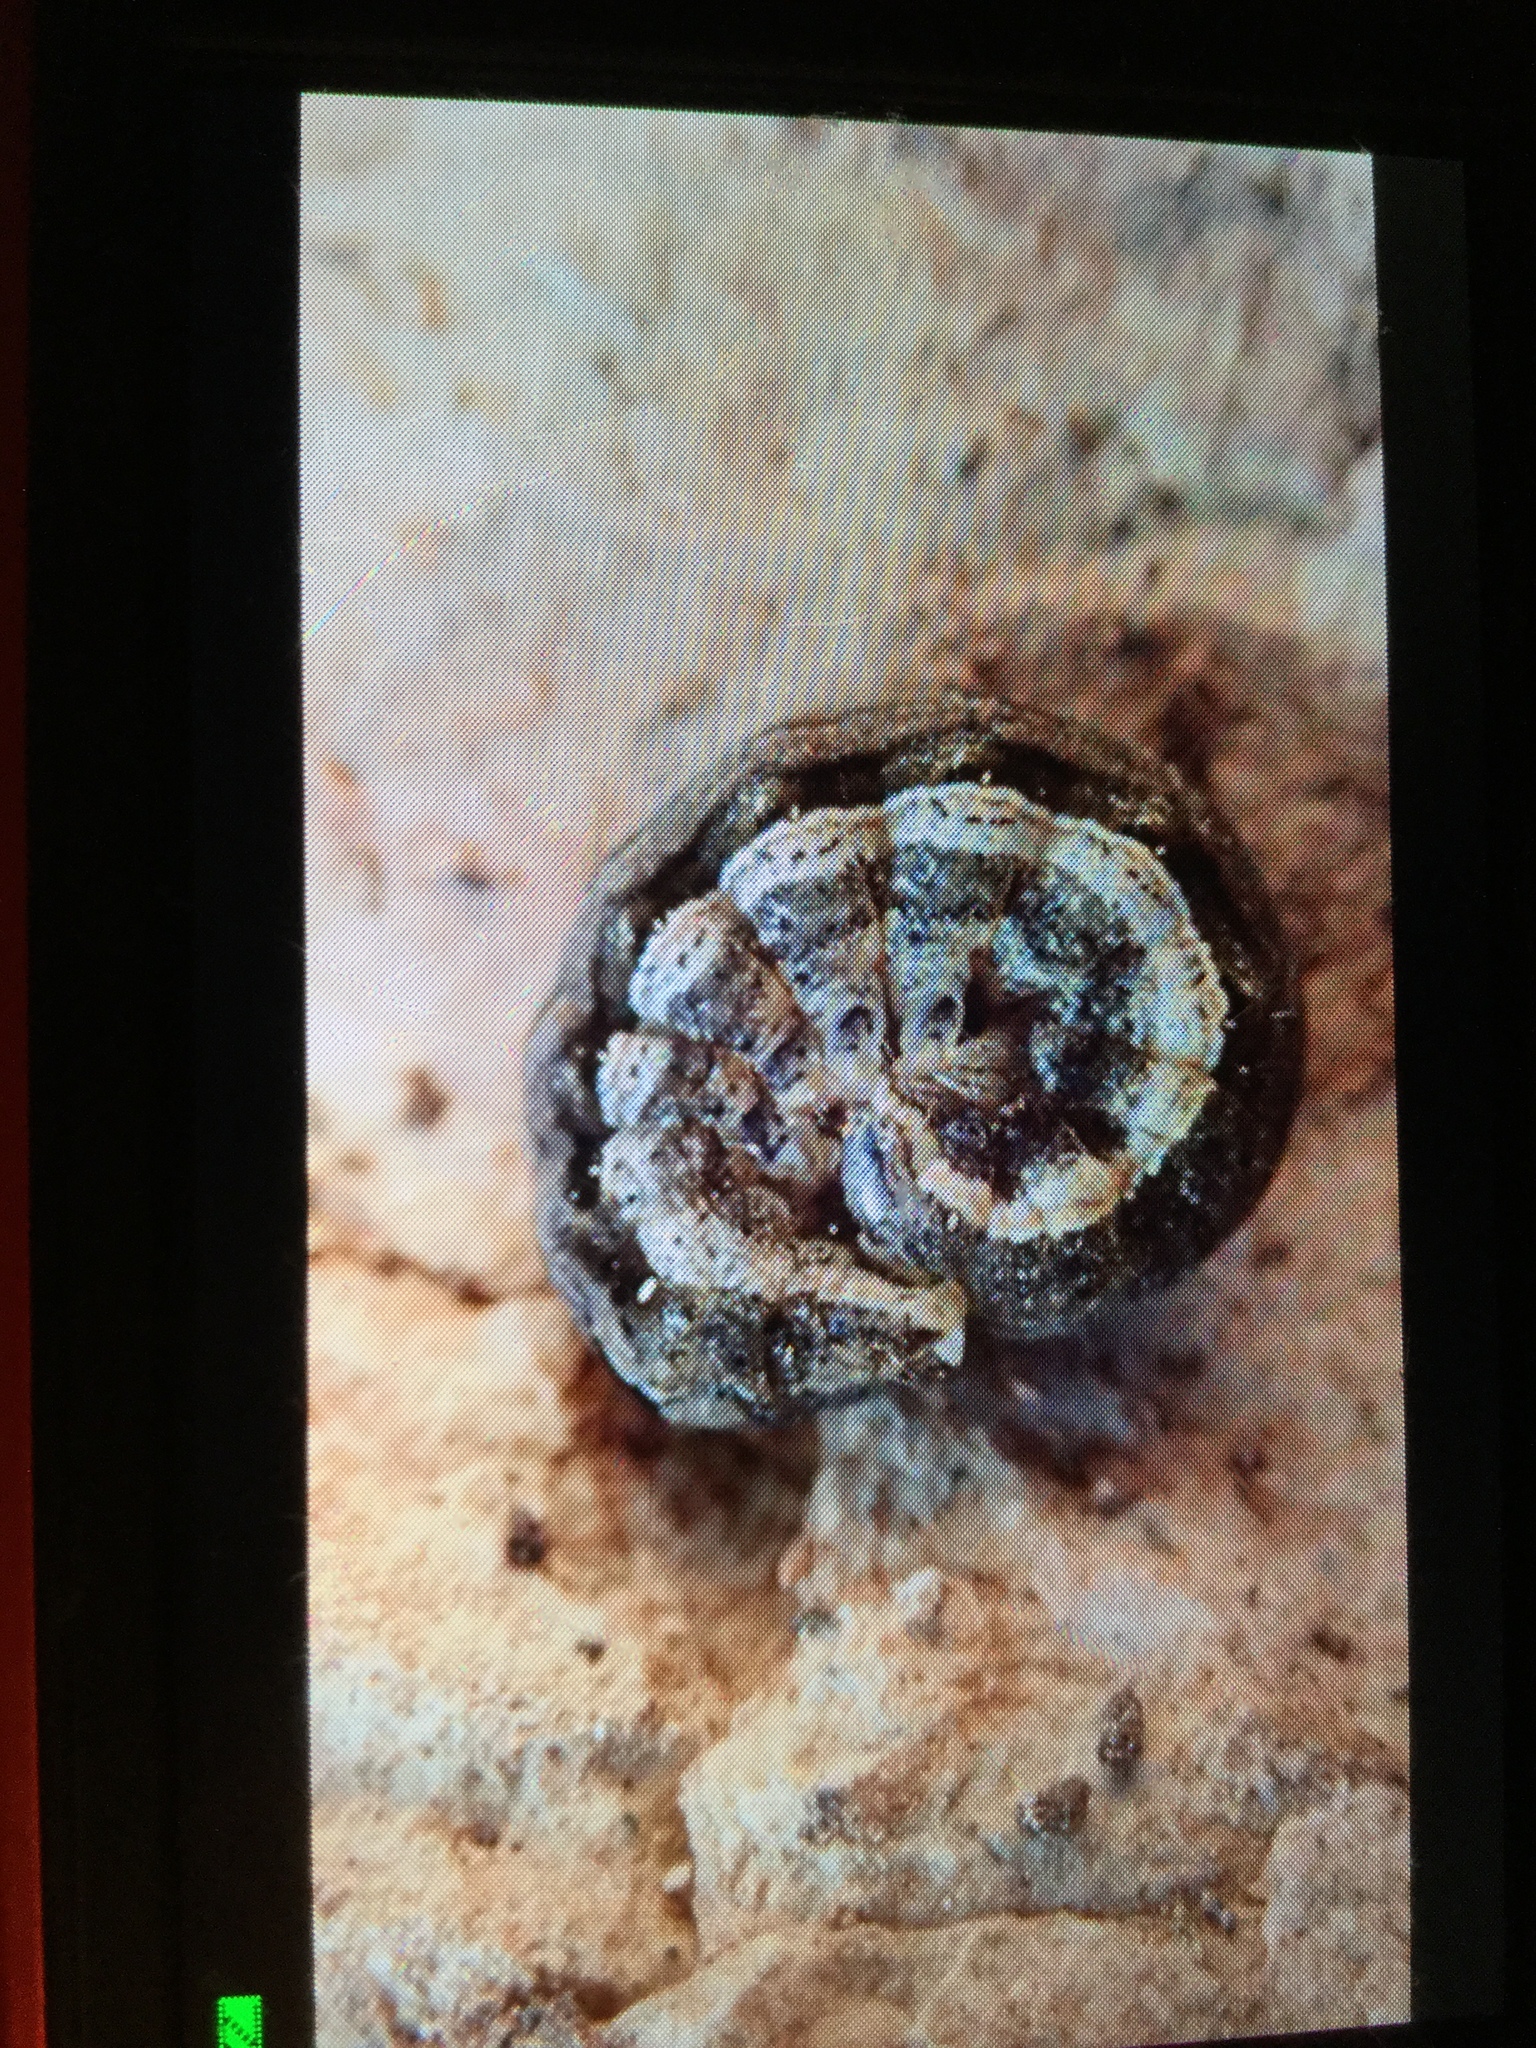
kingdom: Animalia
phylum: Arthropoda
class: Insecta
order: Lepidoptera
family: Noctuidae
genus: Noctua
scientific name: Noctua comes
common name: Lesser yellow underwing
